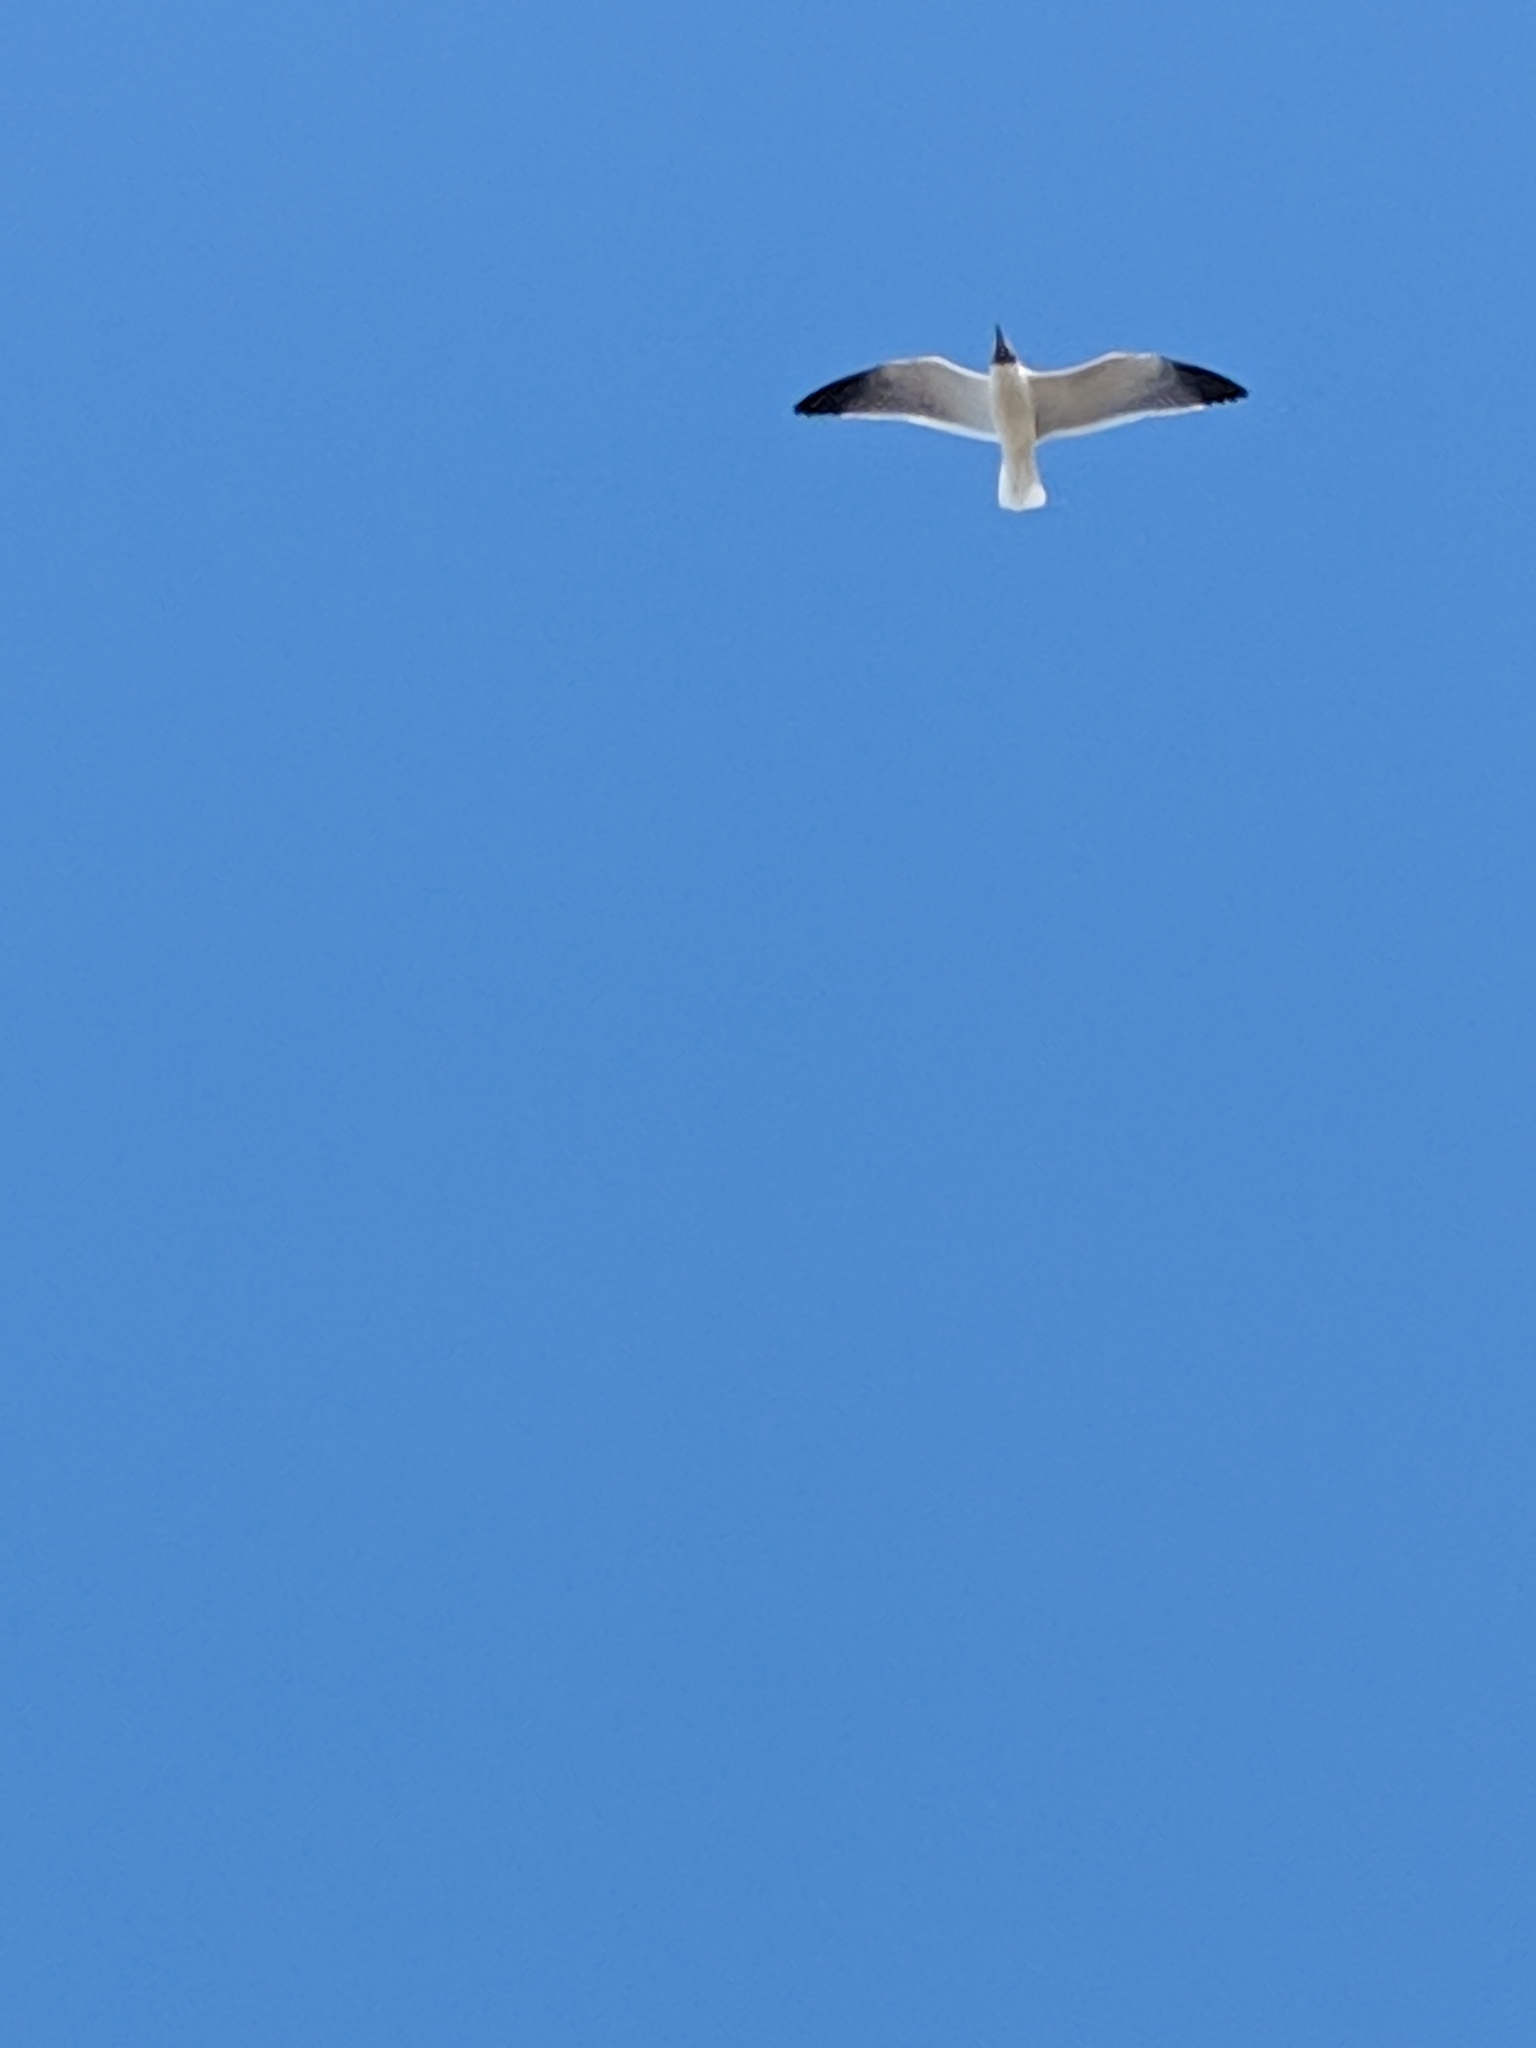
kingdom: Animalia
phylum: Chordata
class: Aves
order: Charadriiformes
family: Laridae
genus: Leucophaeus
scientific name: Leucophaeus atricilla
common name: Laughing gull
